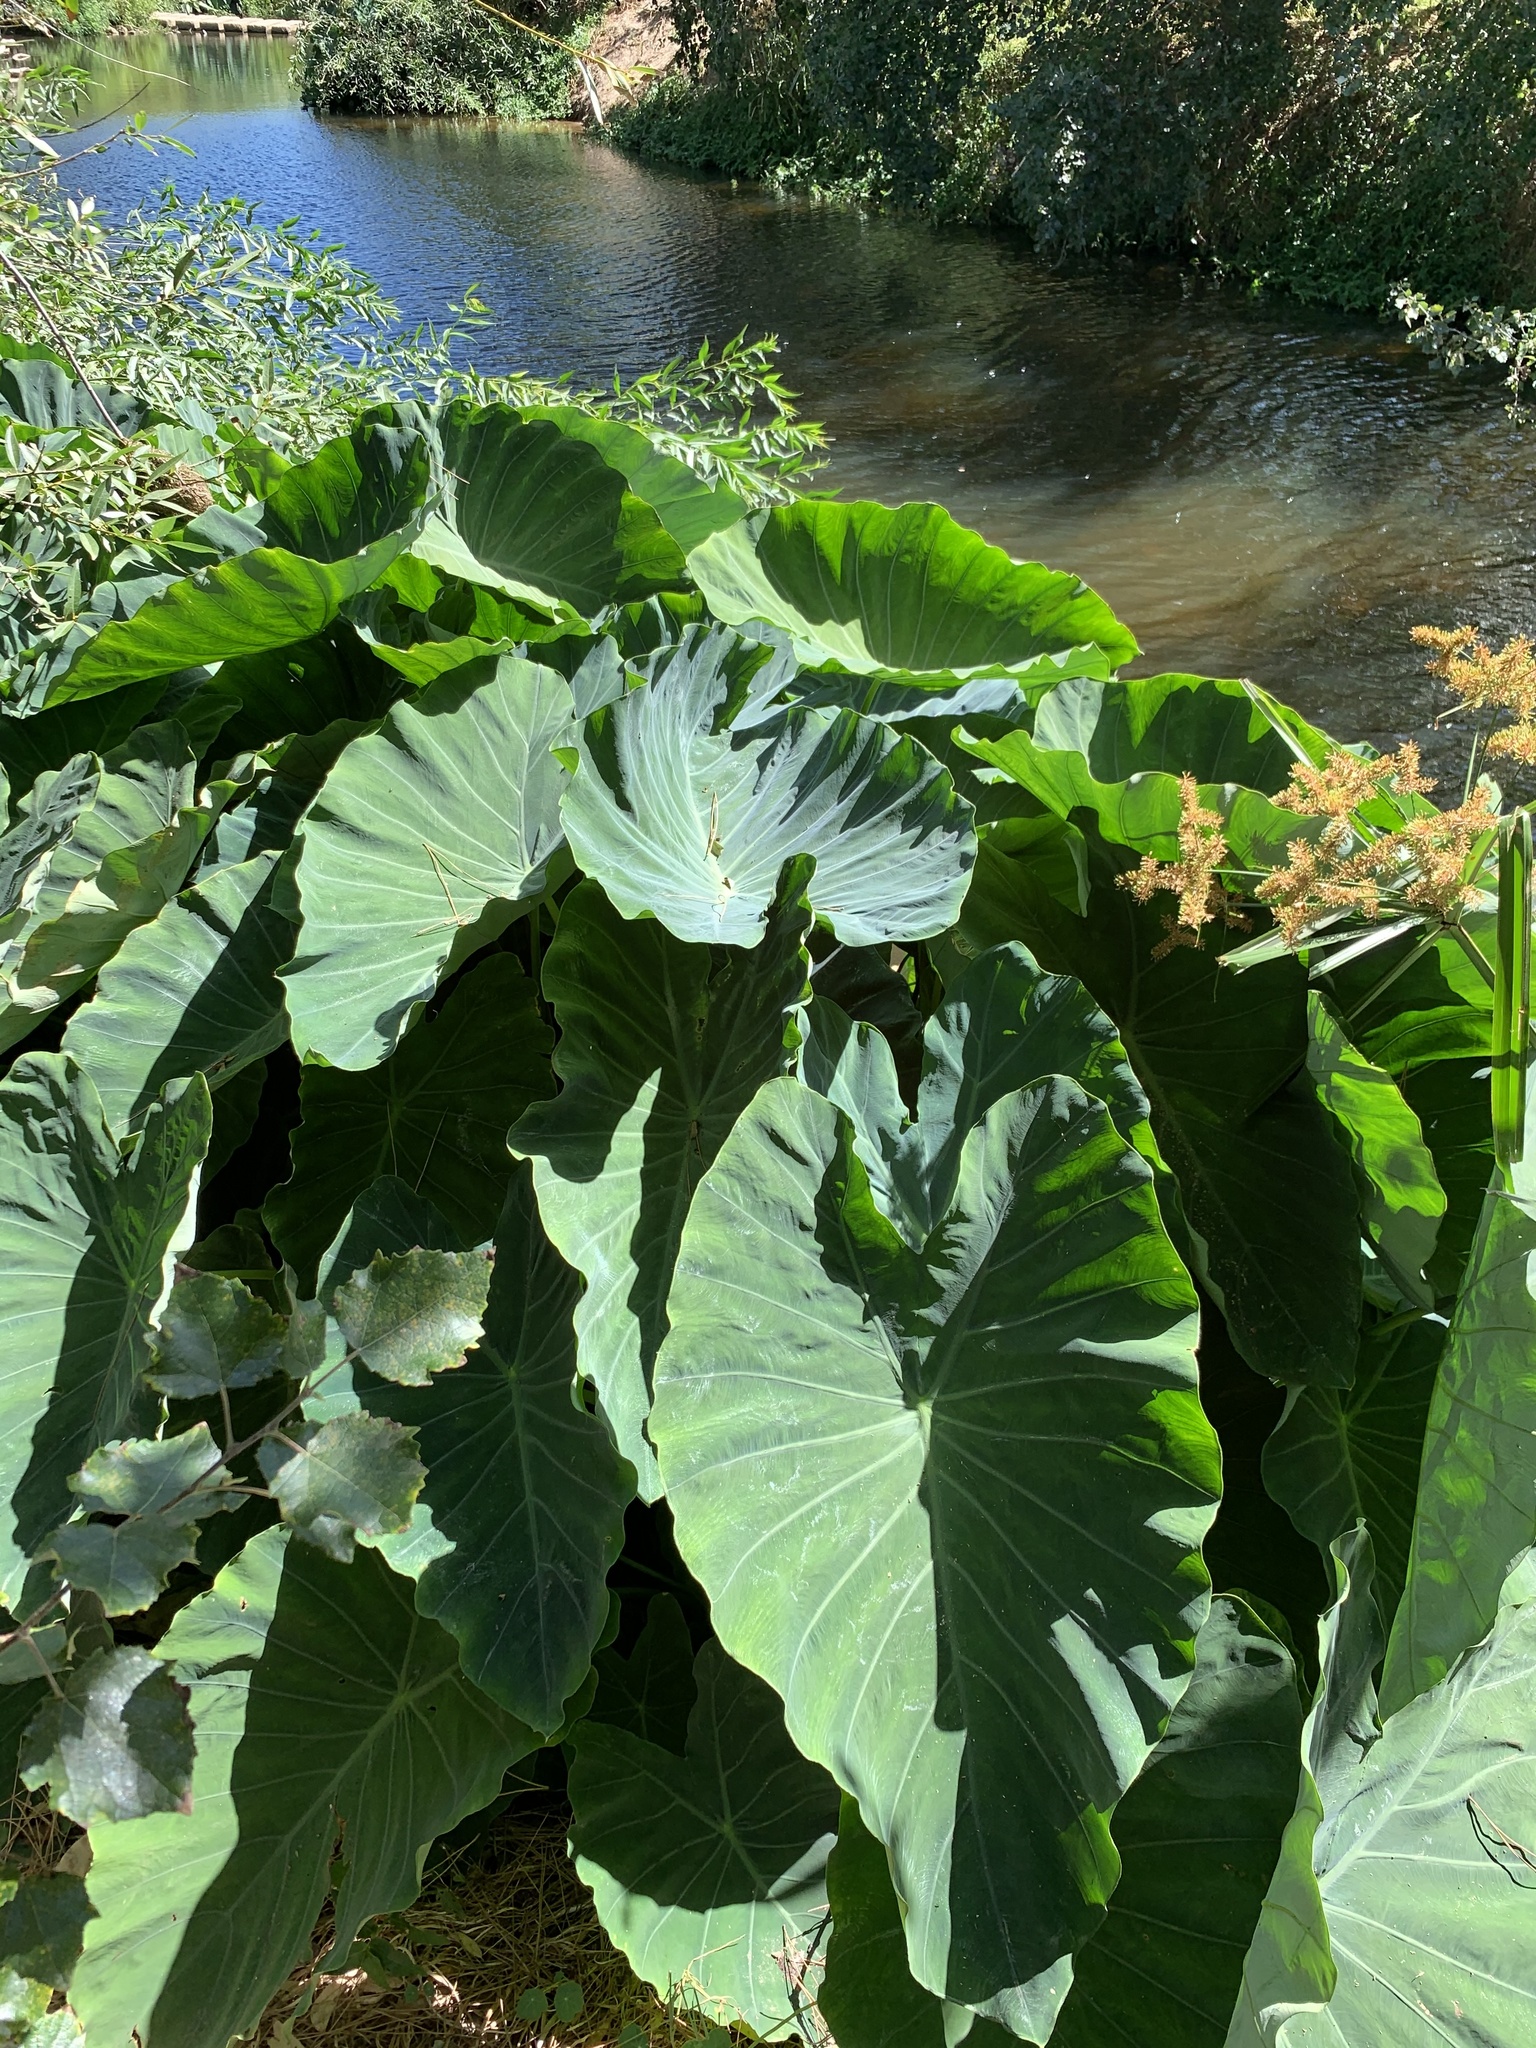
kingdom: Plantae
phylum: Tracheophyta
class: Liliopsida
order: Alismatales
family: Araceae
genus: Colocasia
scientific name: Colocasia esculenta
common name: Taro
